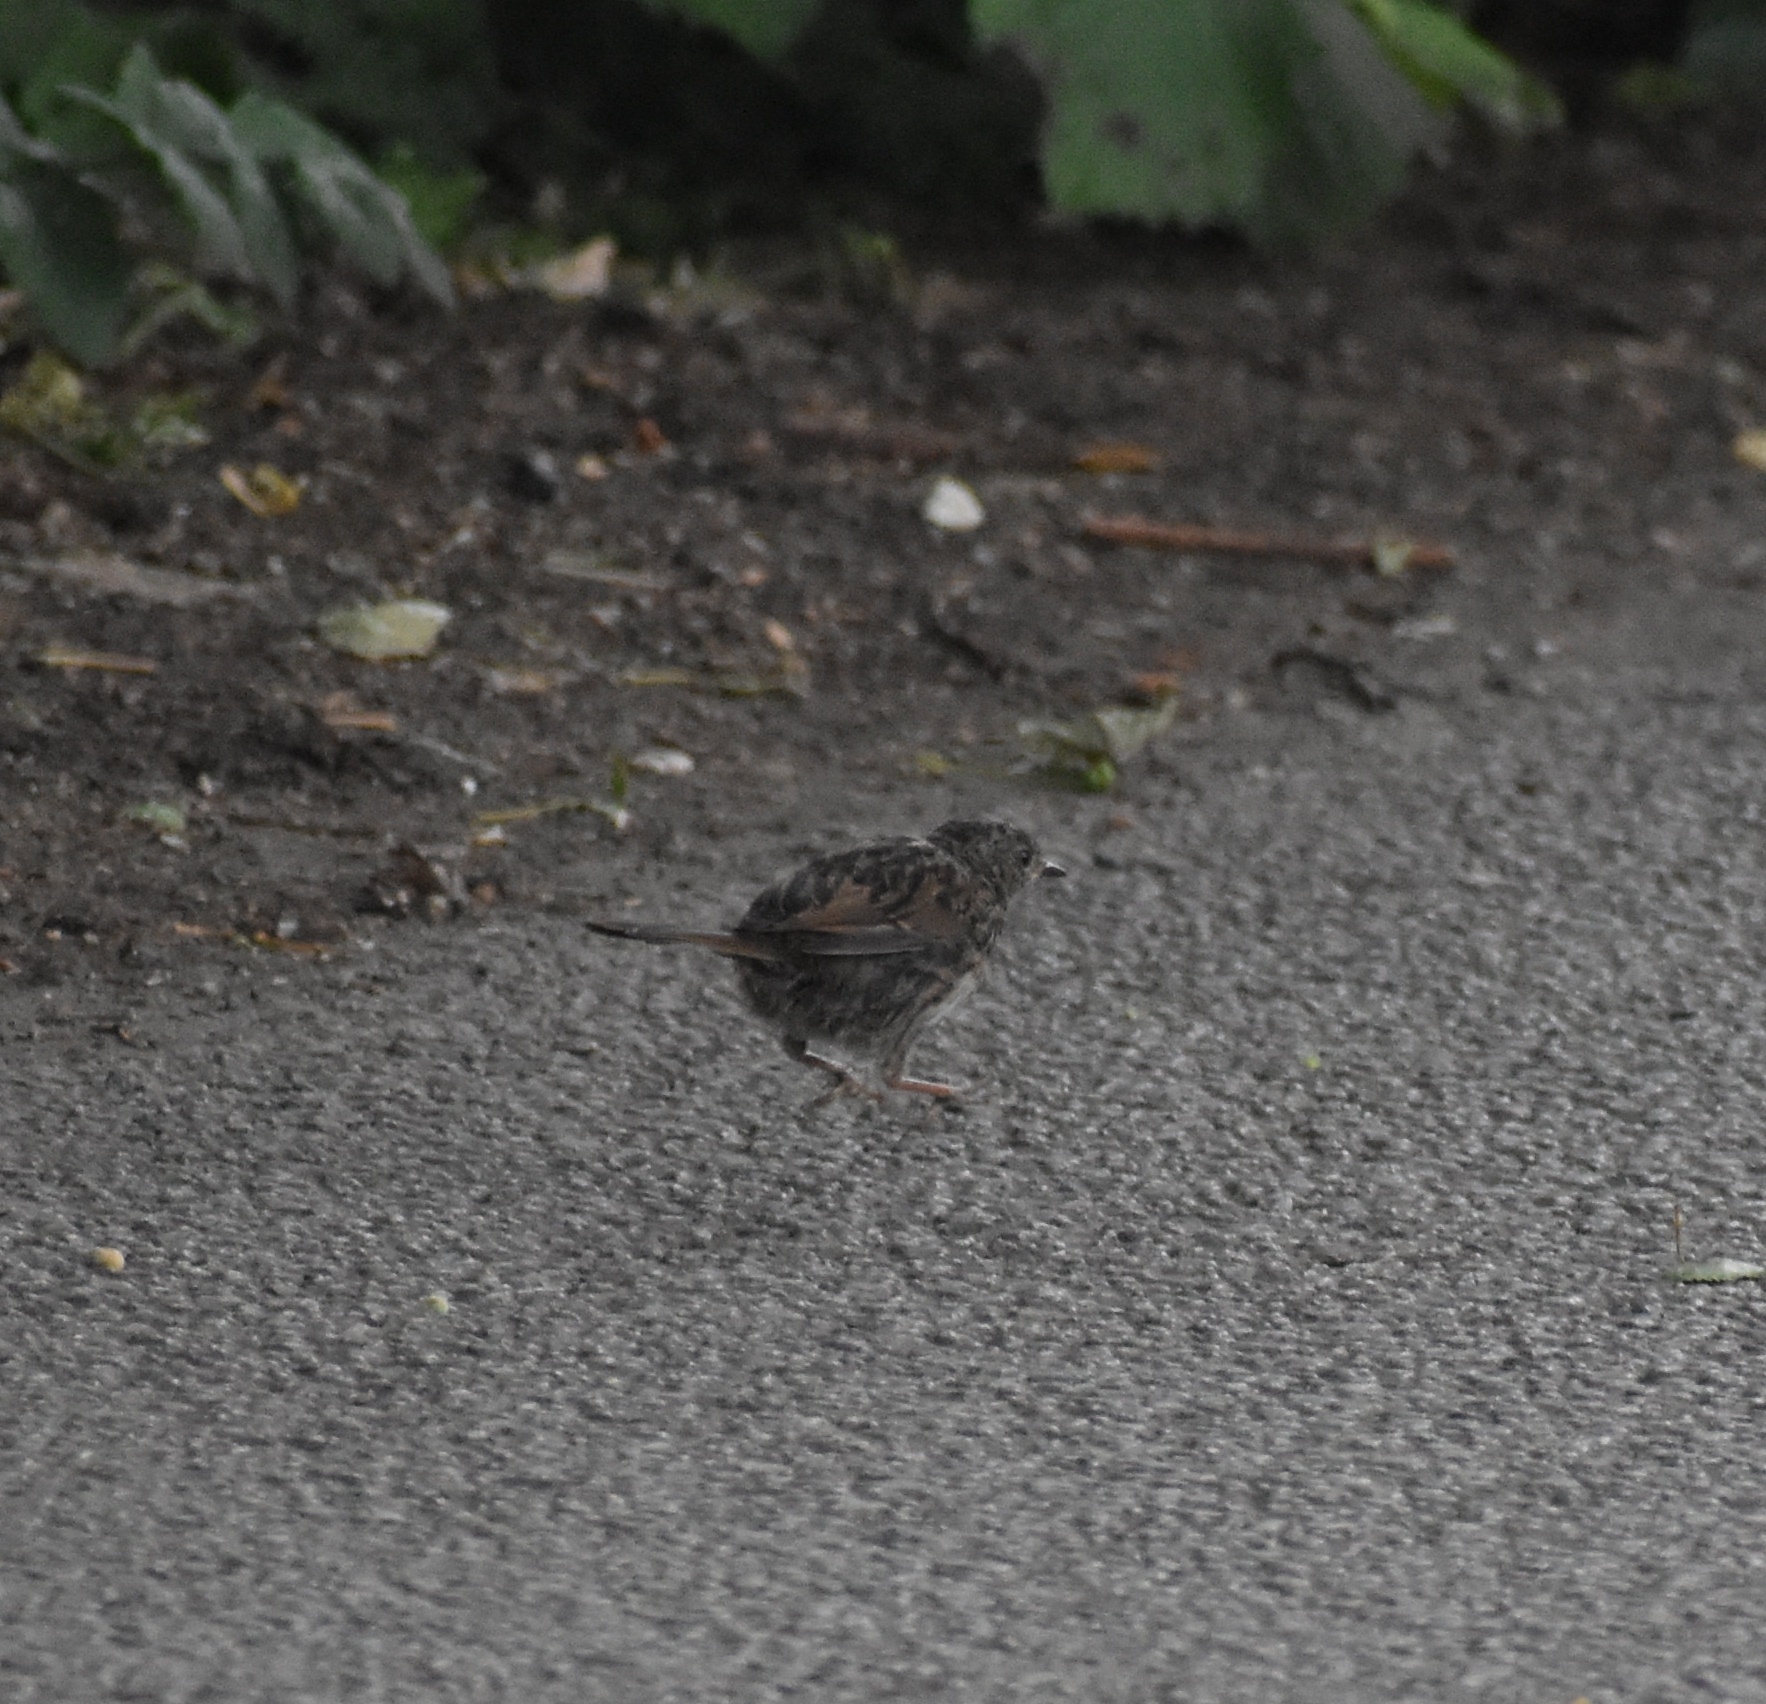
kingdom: Animalia
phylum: Chordata
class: Aves
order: Passeriformes
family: Prunellidae
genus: Prunella
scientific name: Prunella modularis
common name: Dunnock
